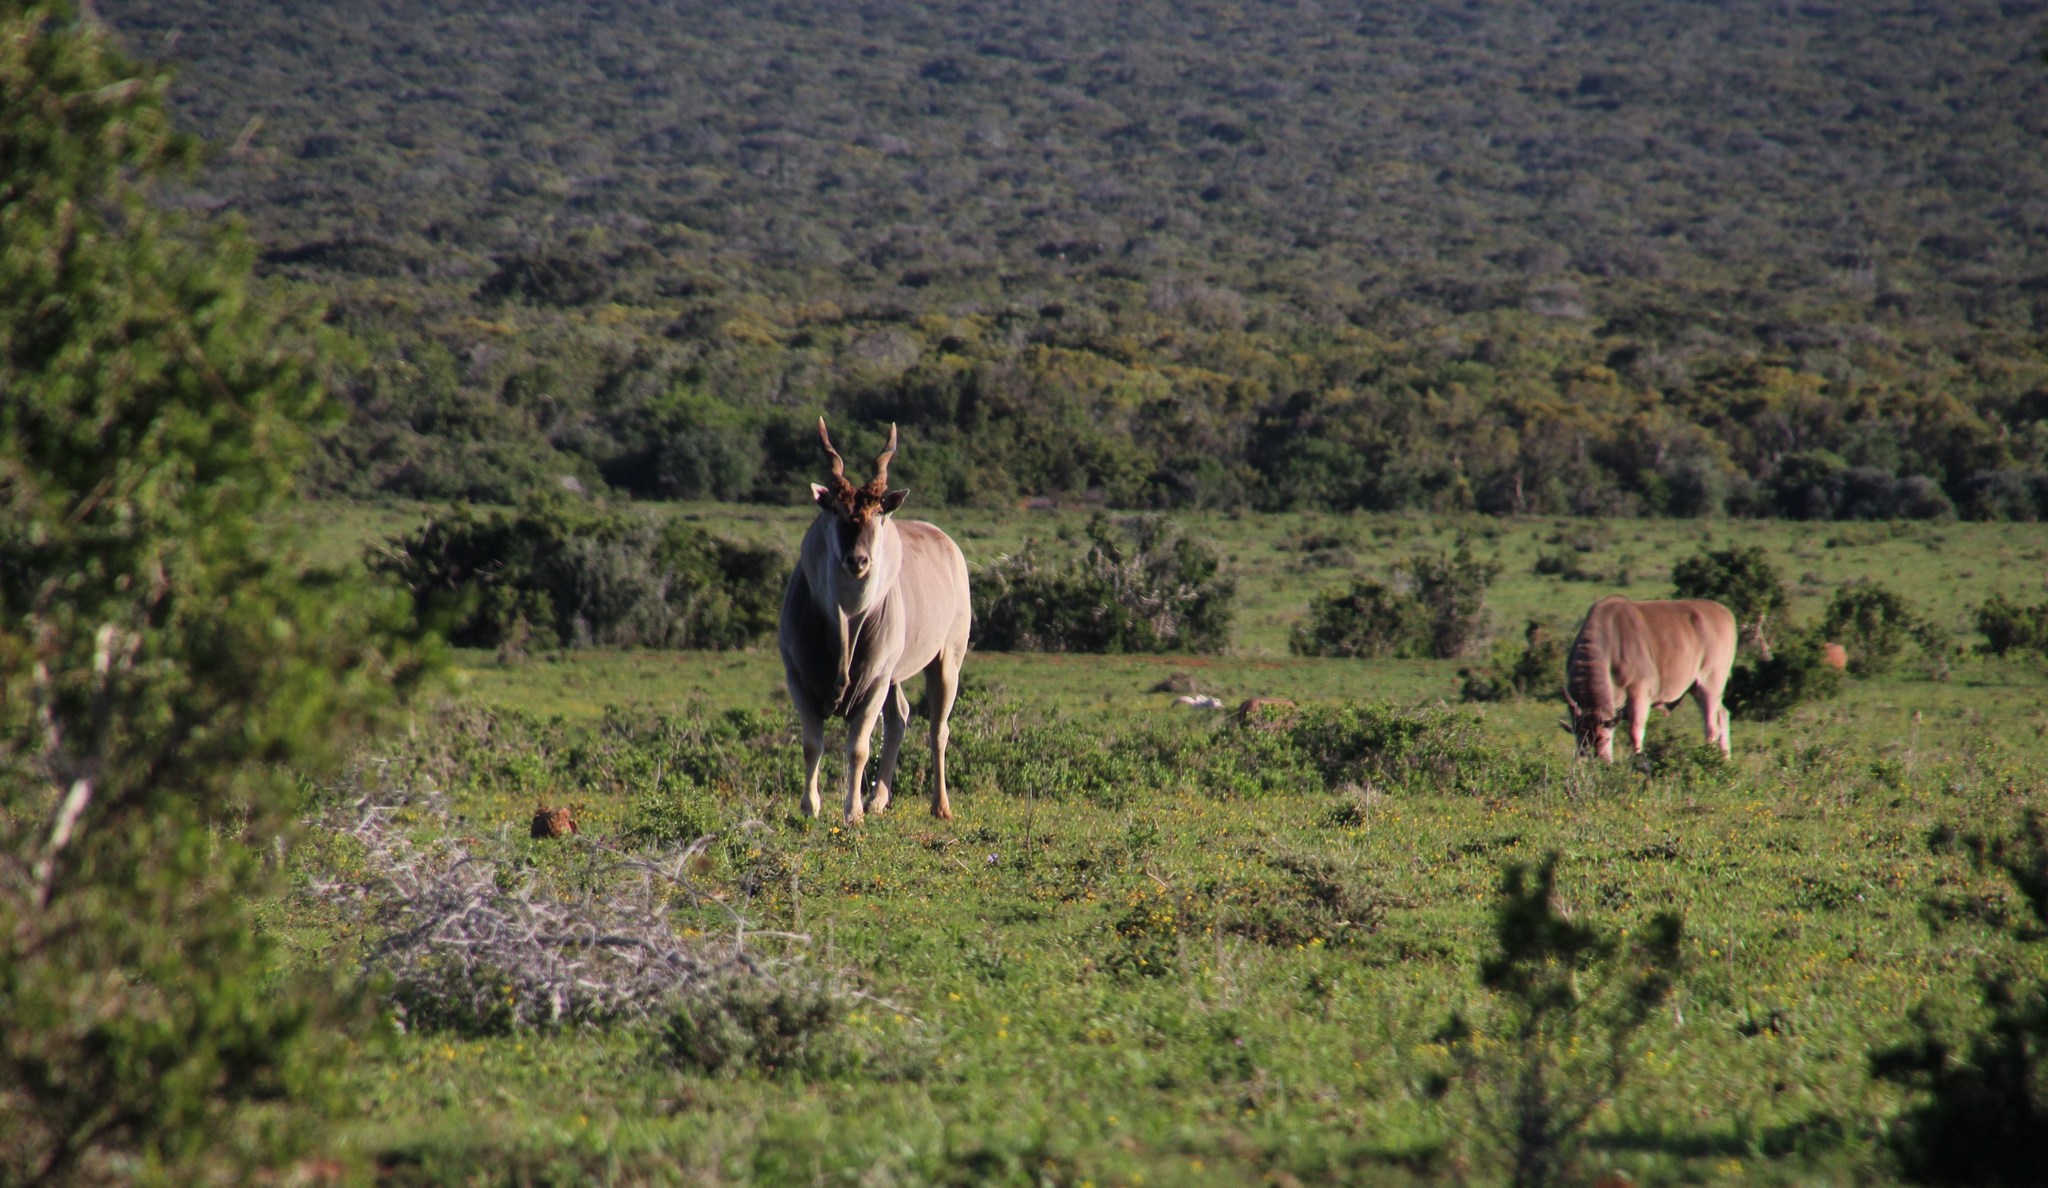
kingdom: Animalia
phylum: Chordata
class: Mammalia
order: Artiodactyla
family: Bovidae
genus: Taurotragus
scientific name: Taurotragus oryx
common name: Common eland
